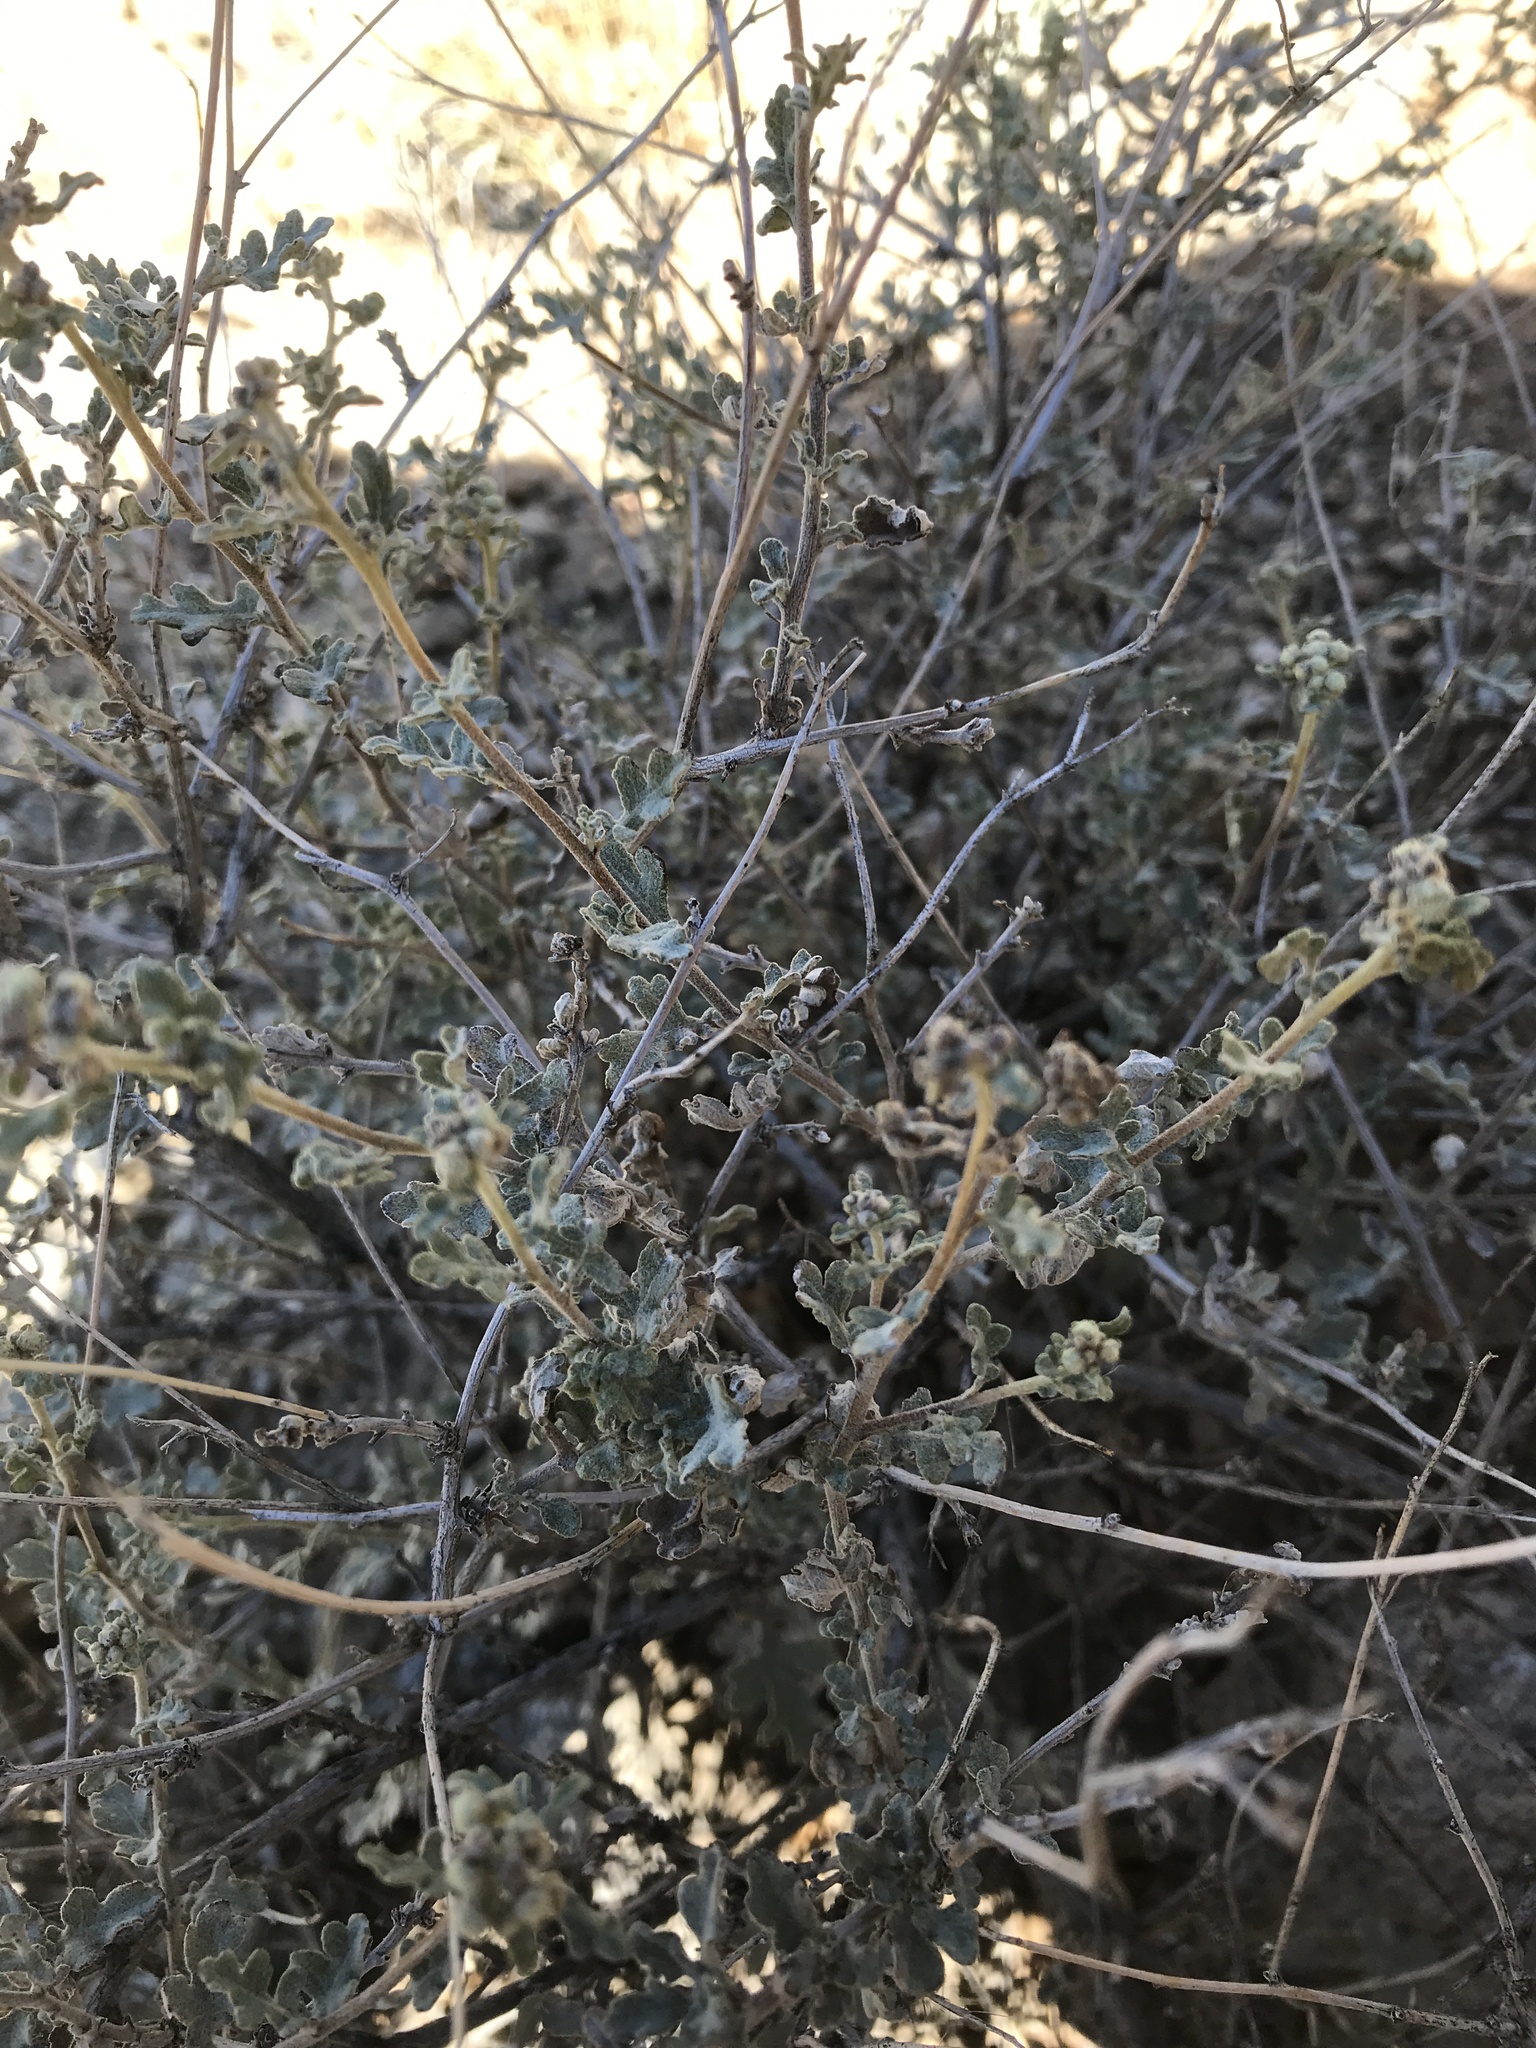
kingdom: Plantae
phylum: Tracheophyta
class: Magnoliopsida
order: Asterales
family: Asteraceae
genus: Parthenium
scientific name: Parthenium incanum
